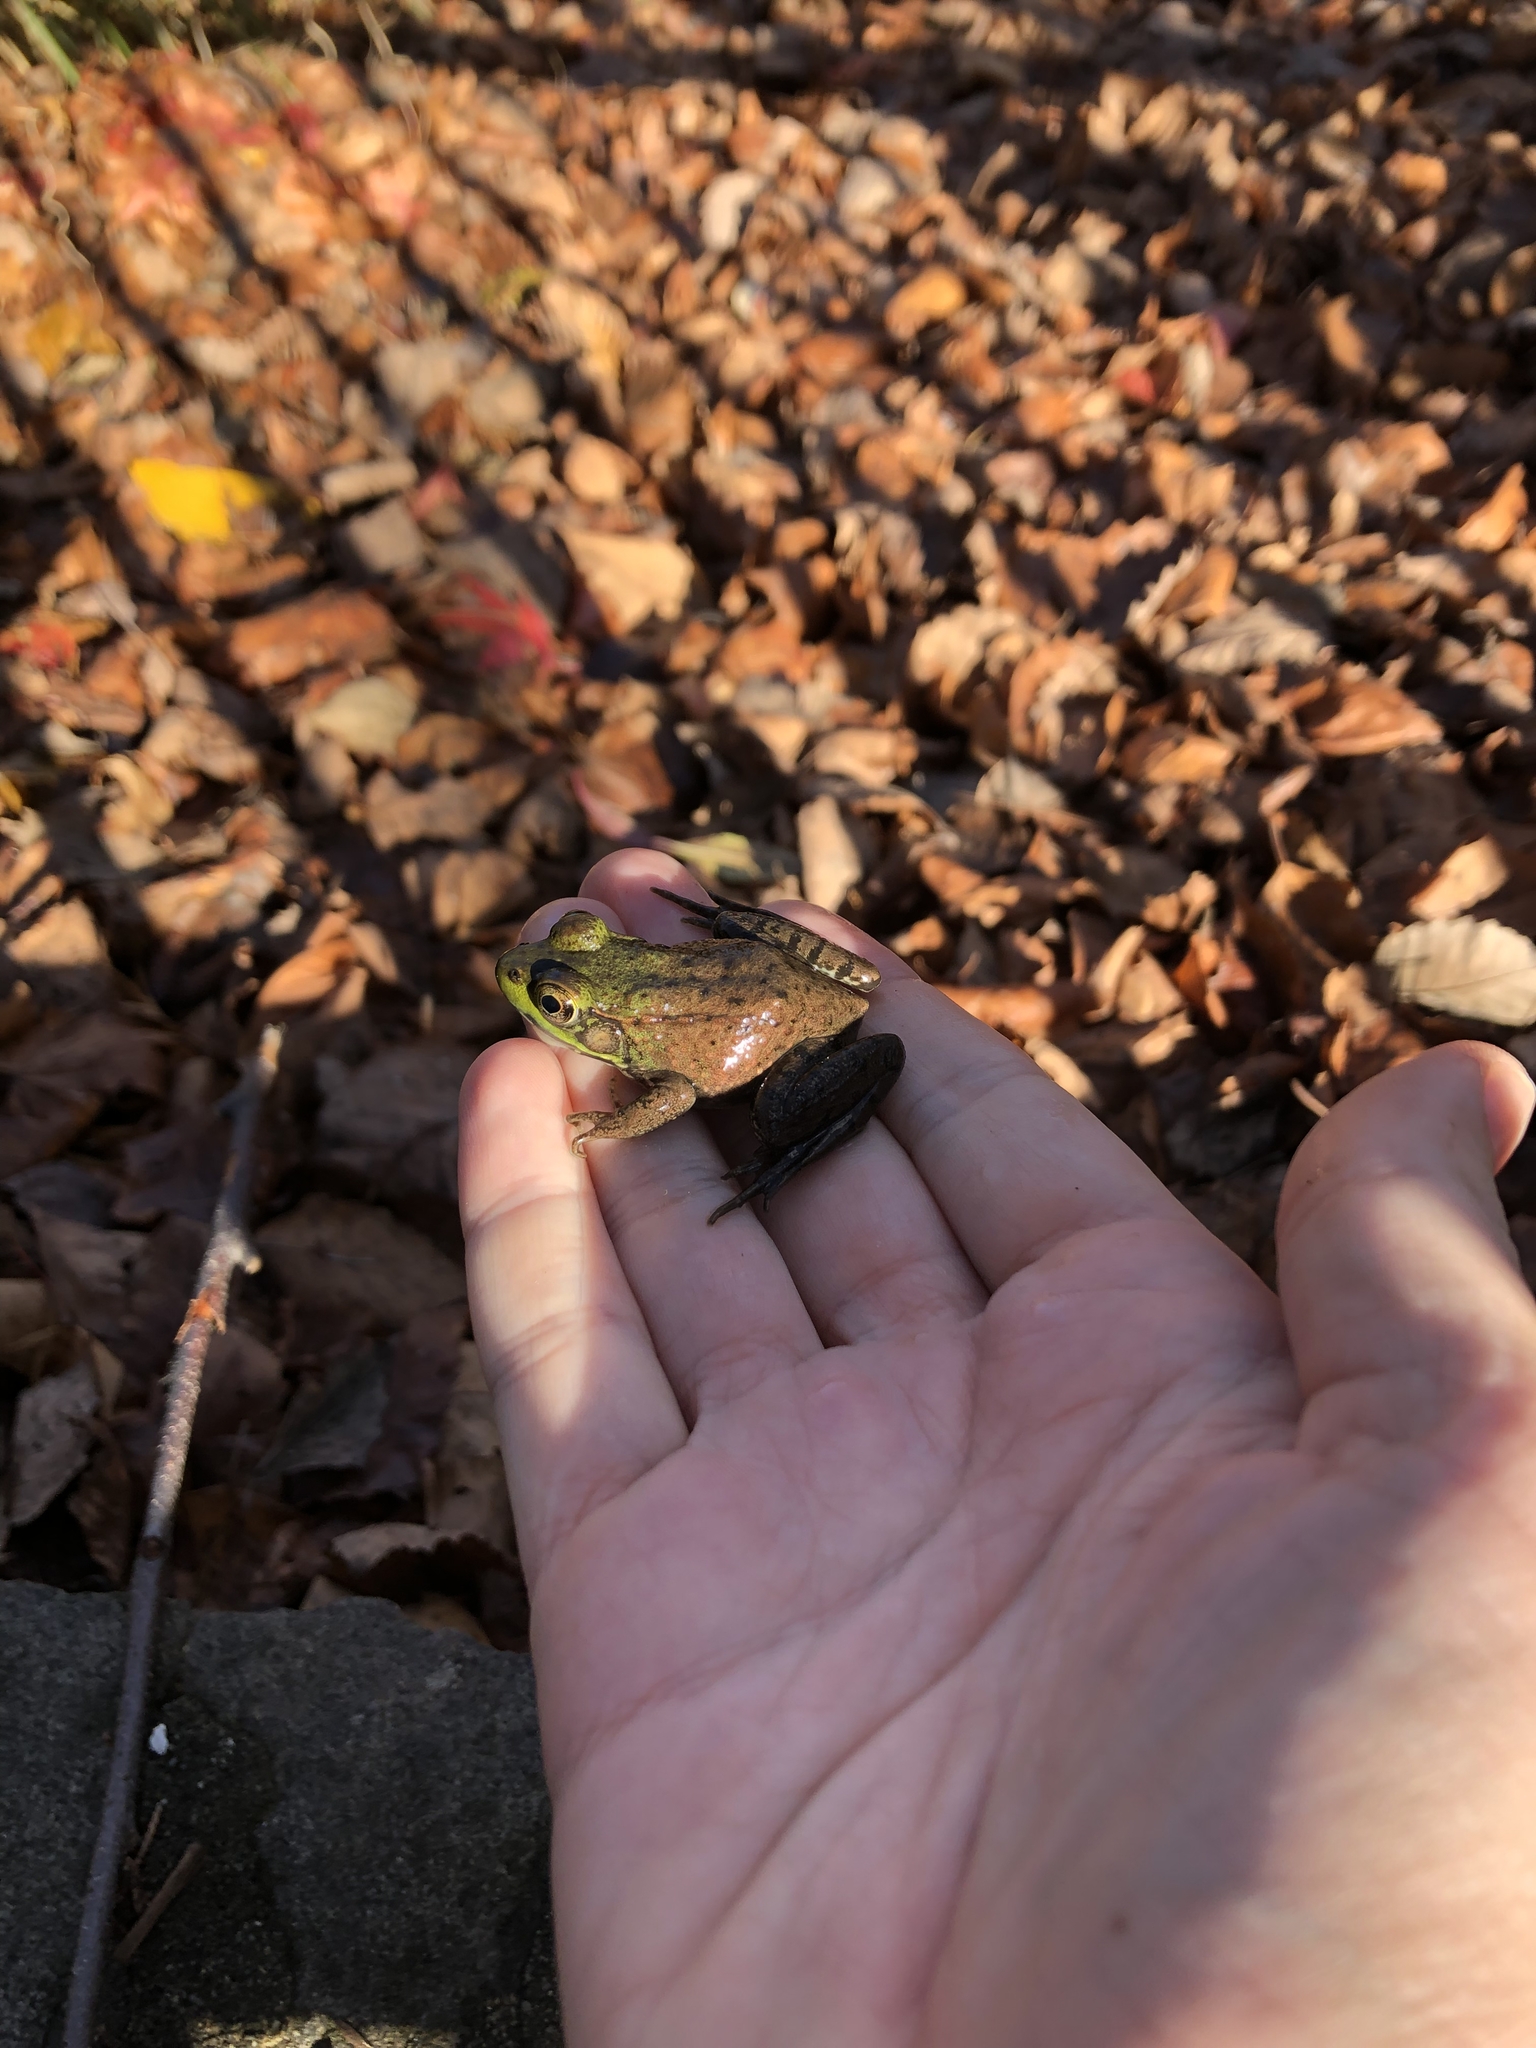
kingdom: Animalia
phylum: Chordata
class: Amphibia
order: Anura
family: Ranidae
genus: Lithobates
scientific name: Lithobates clamitans
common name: Green frog
